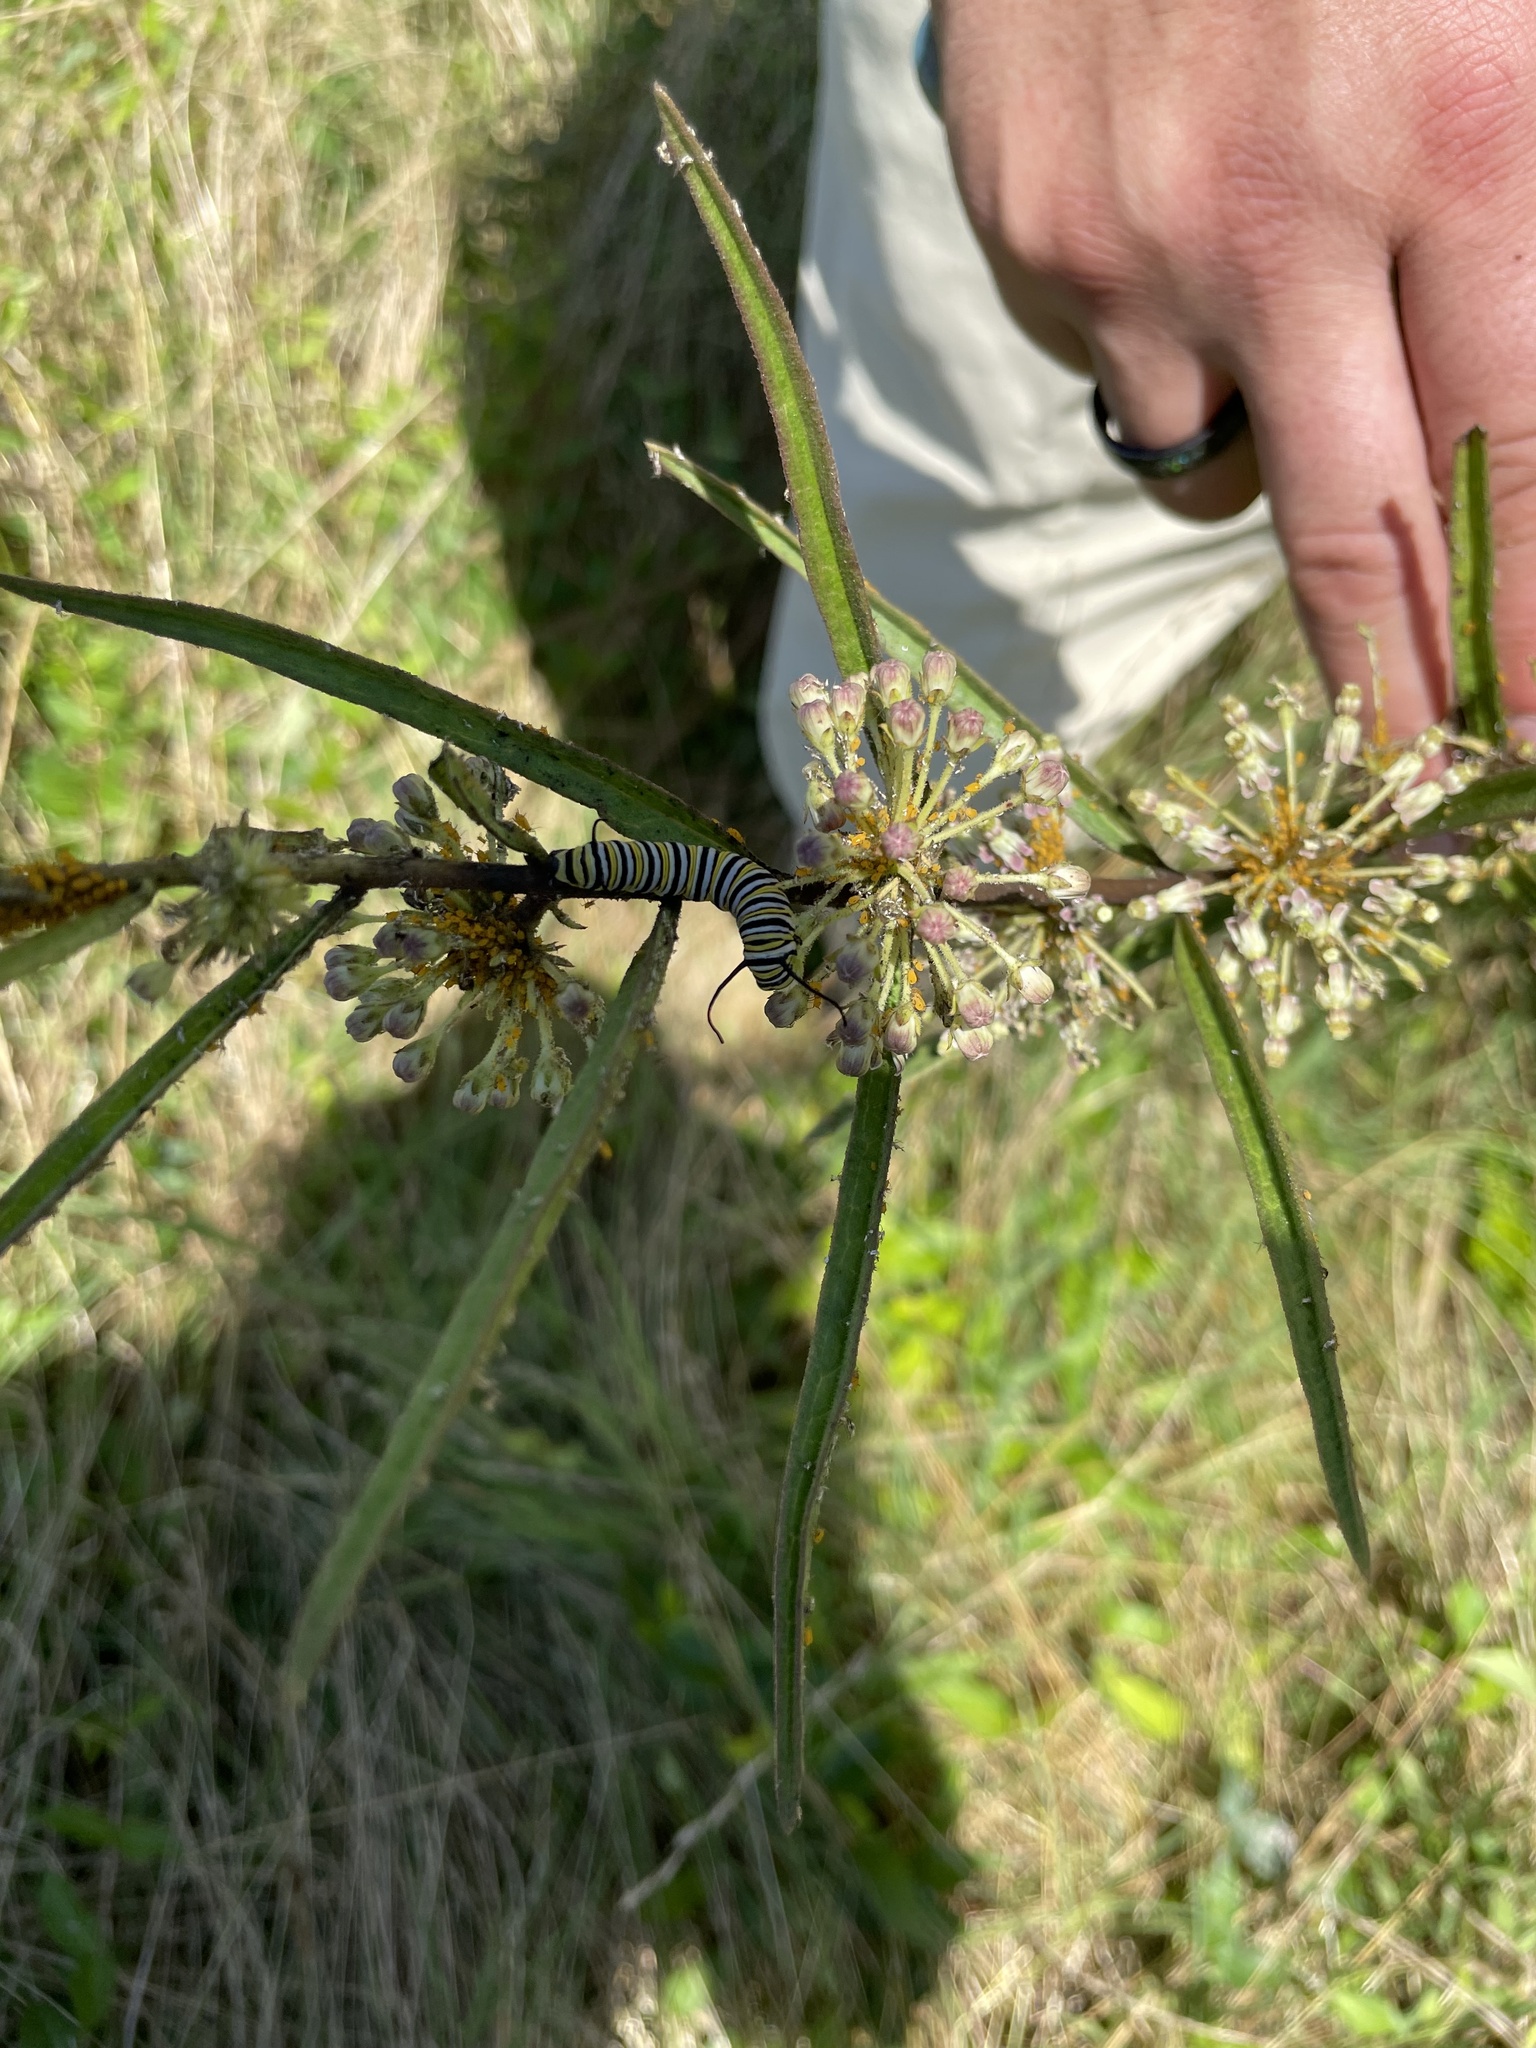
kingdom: Plantae
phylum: Tracheophyta
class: Magnoliopsida
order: Gentianales
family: Apocynaceae
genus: Asclepias
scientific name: Asclepias hirtella
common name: Prairie milkweed
